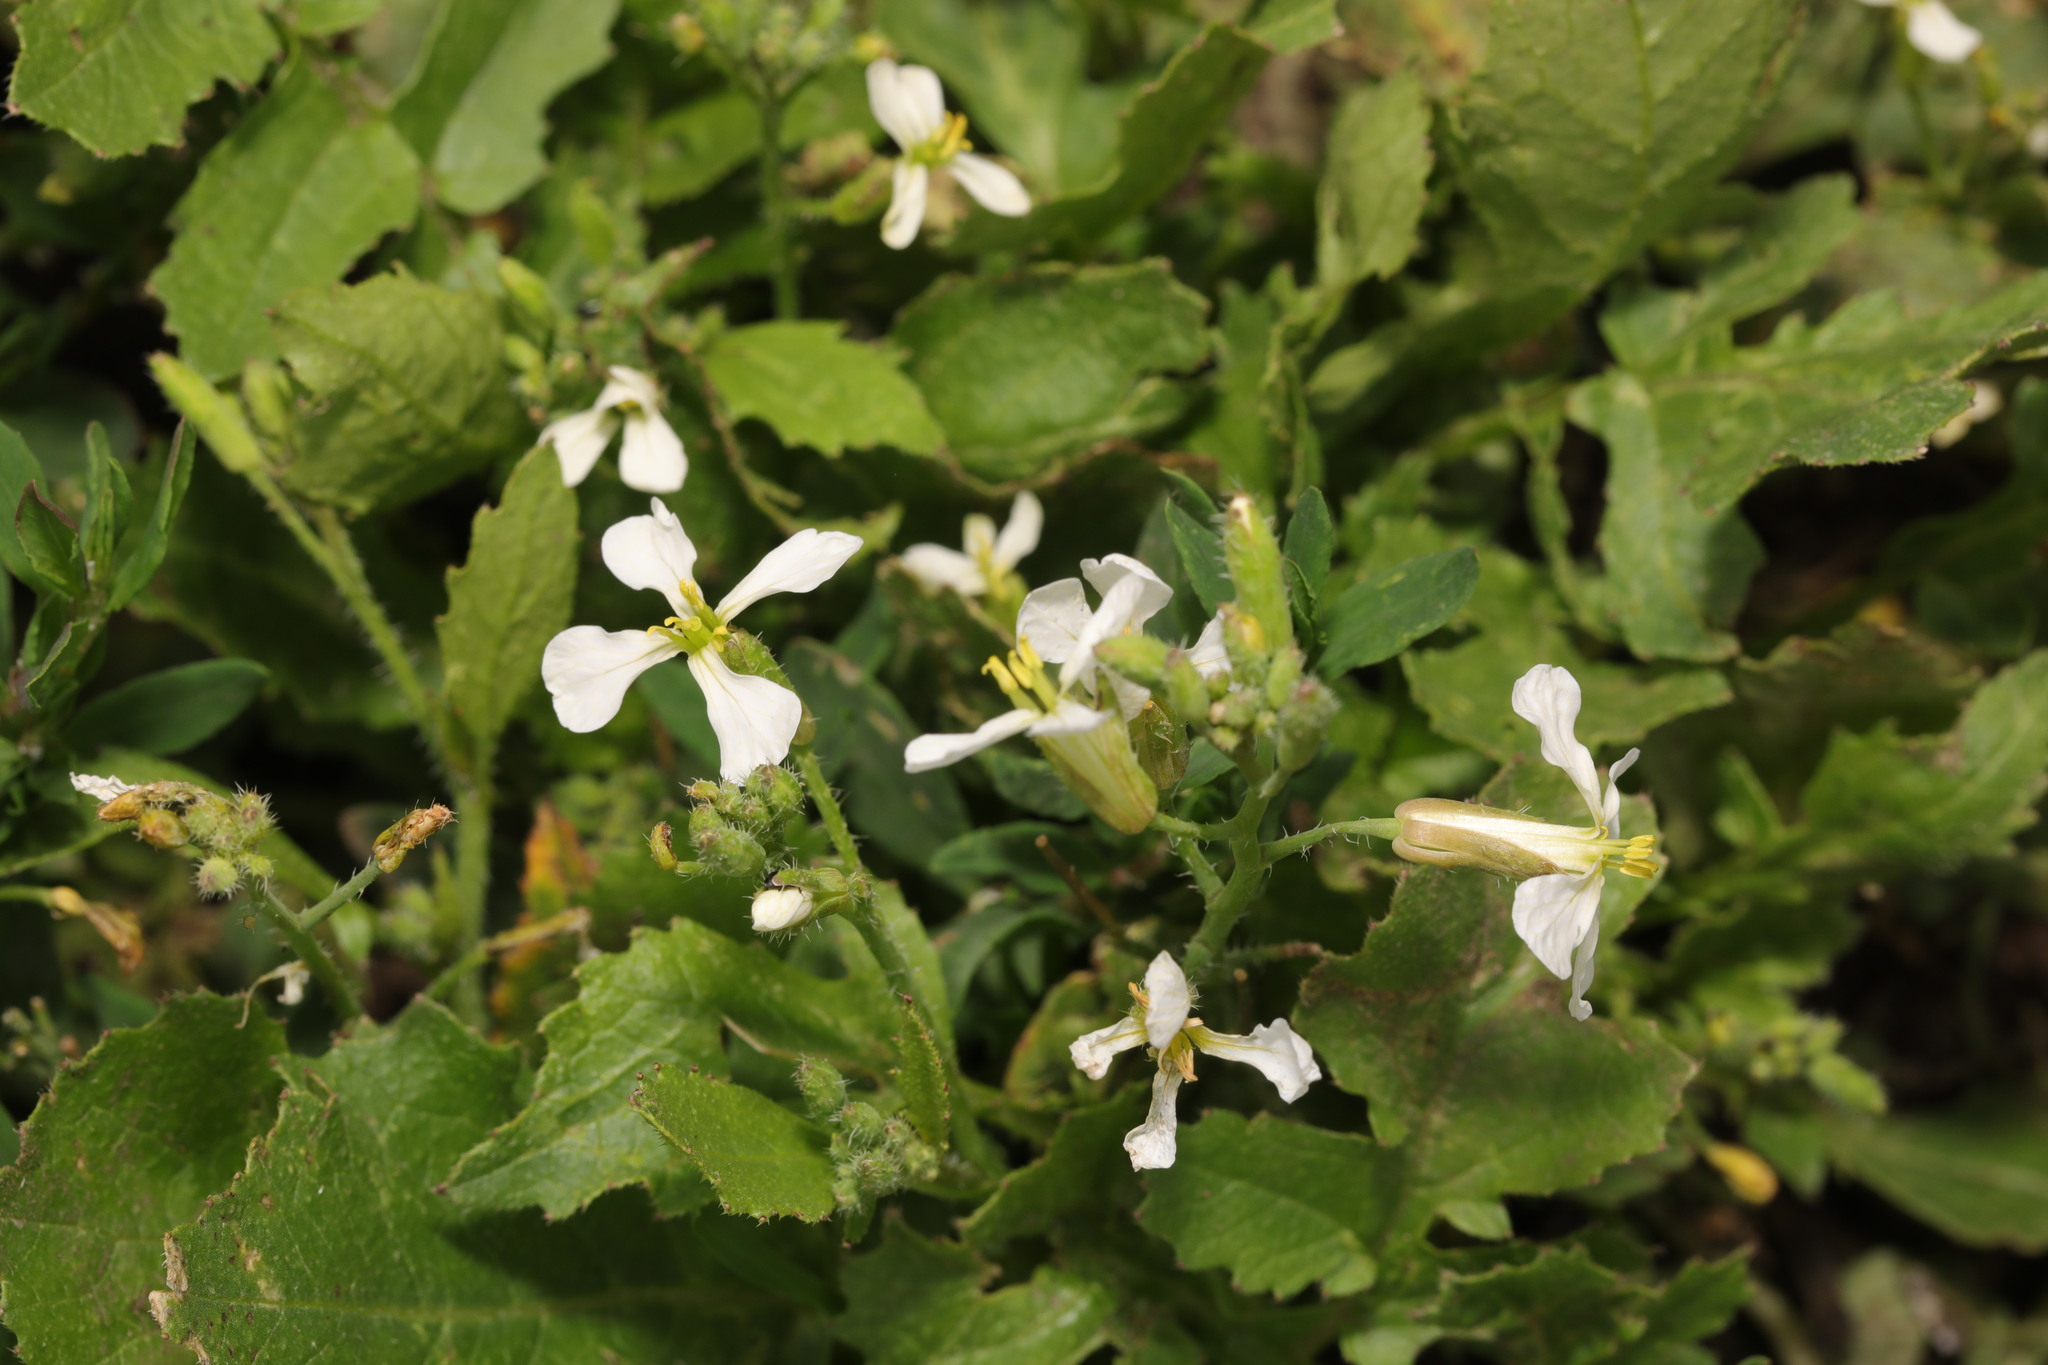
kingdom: Plantae
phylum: Tracheophyta
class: Magnoliopsida
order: Brassicales
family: Brassicaceae
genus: Raphanus
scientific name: Raphanus raphanistrum
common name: Wild radish
